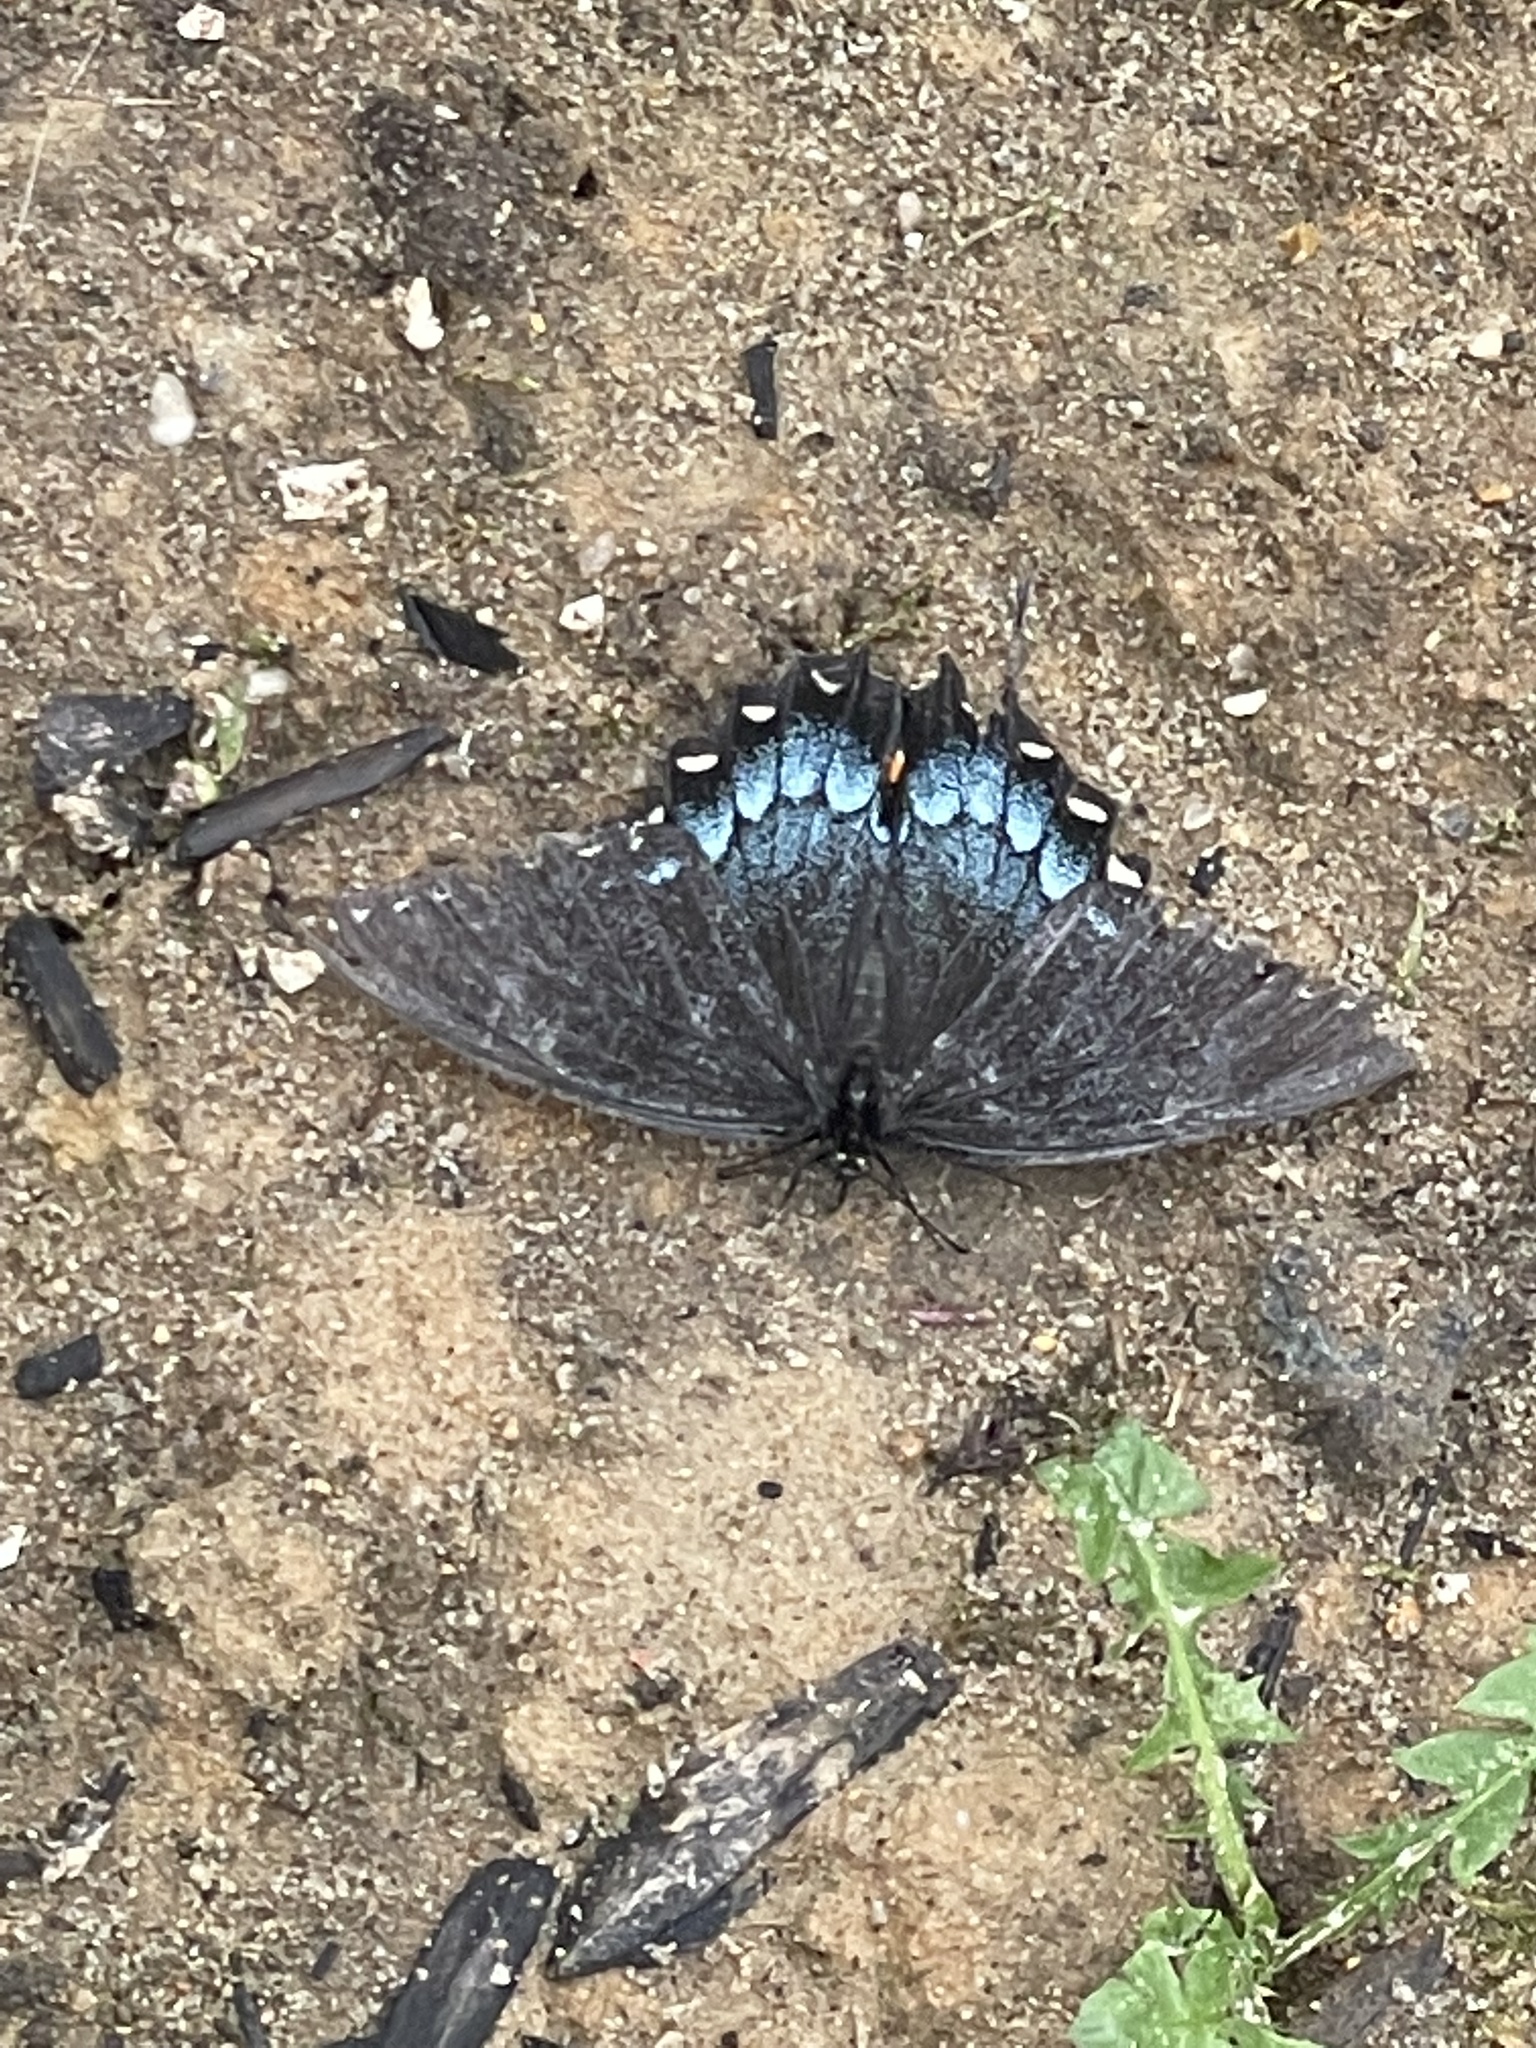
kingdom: Animalia
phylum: Arthropoda
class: Insecta
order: Lepidoptera
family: Papilionidae
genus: Papilio
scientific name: Papilio glaucus
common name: Tiger swallowtail
